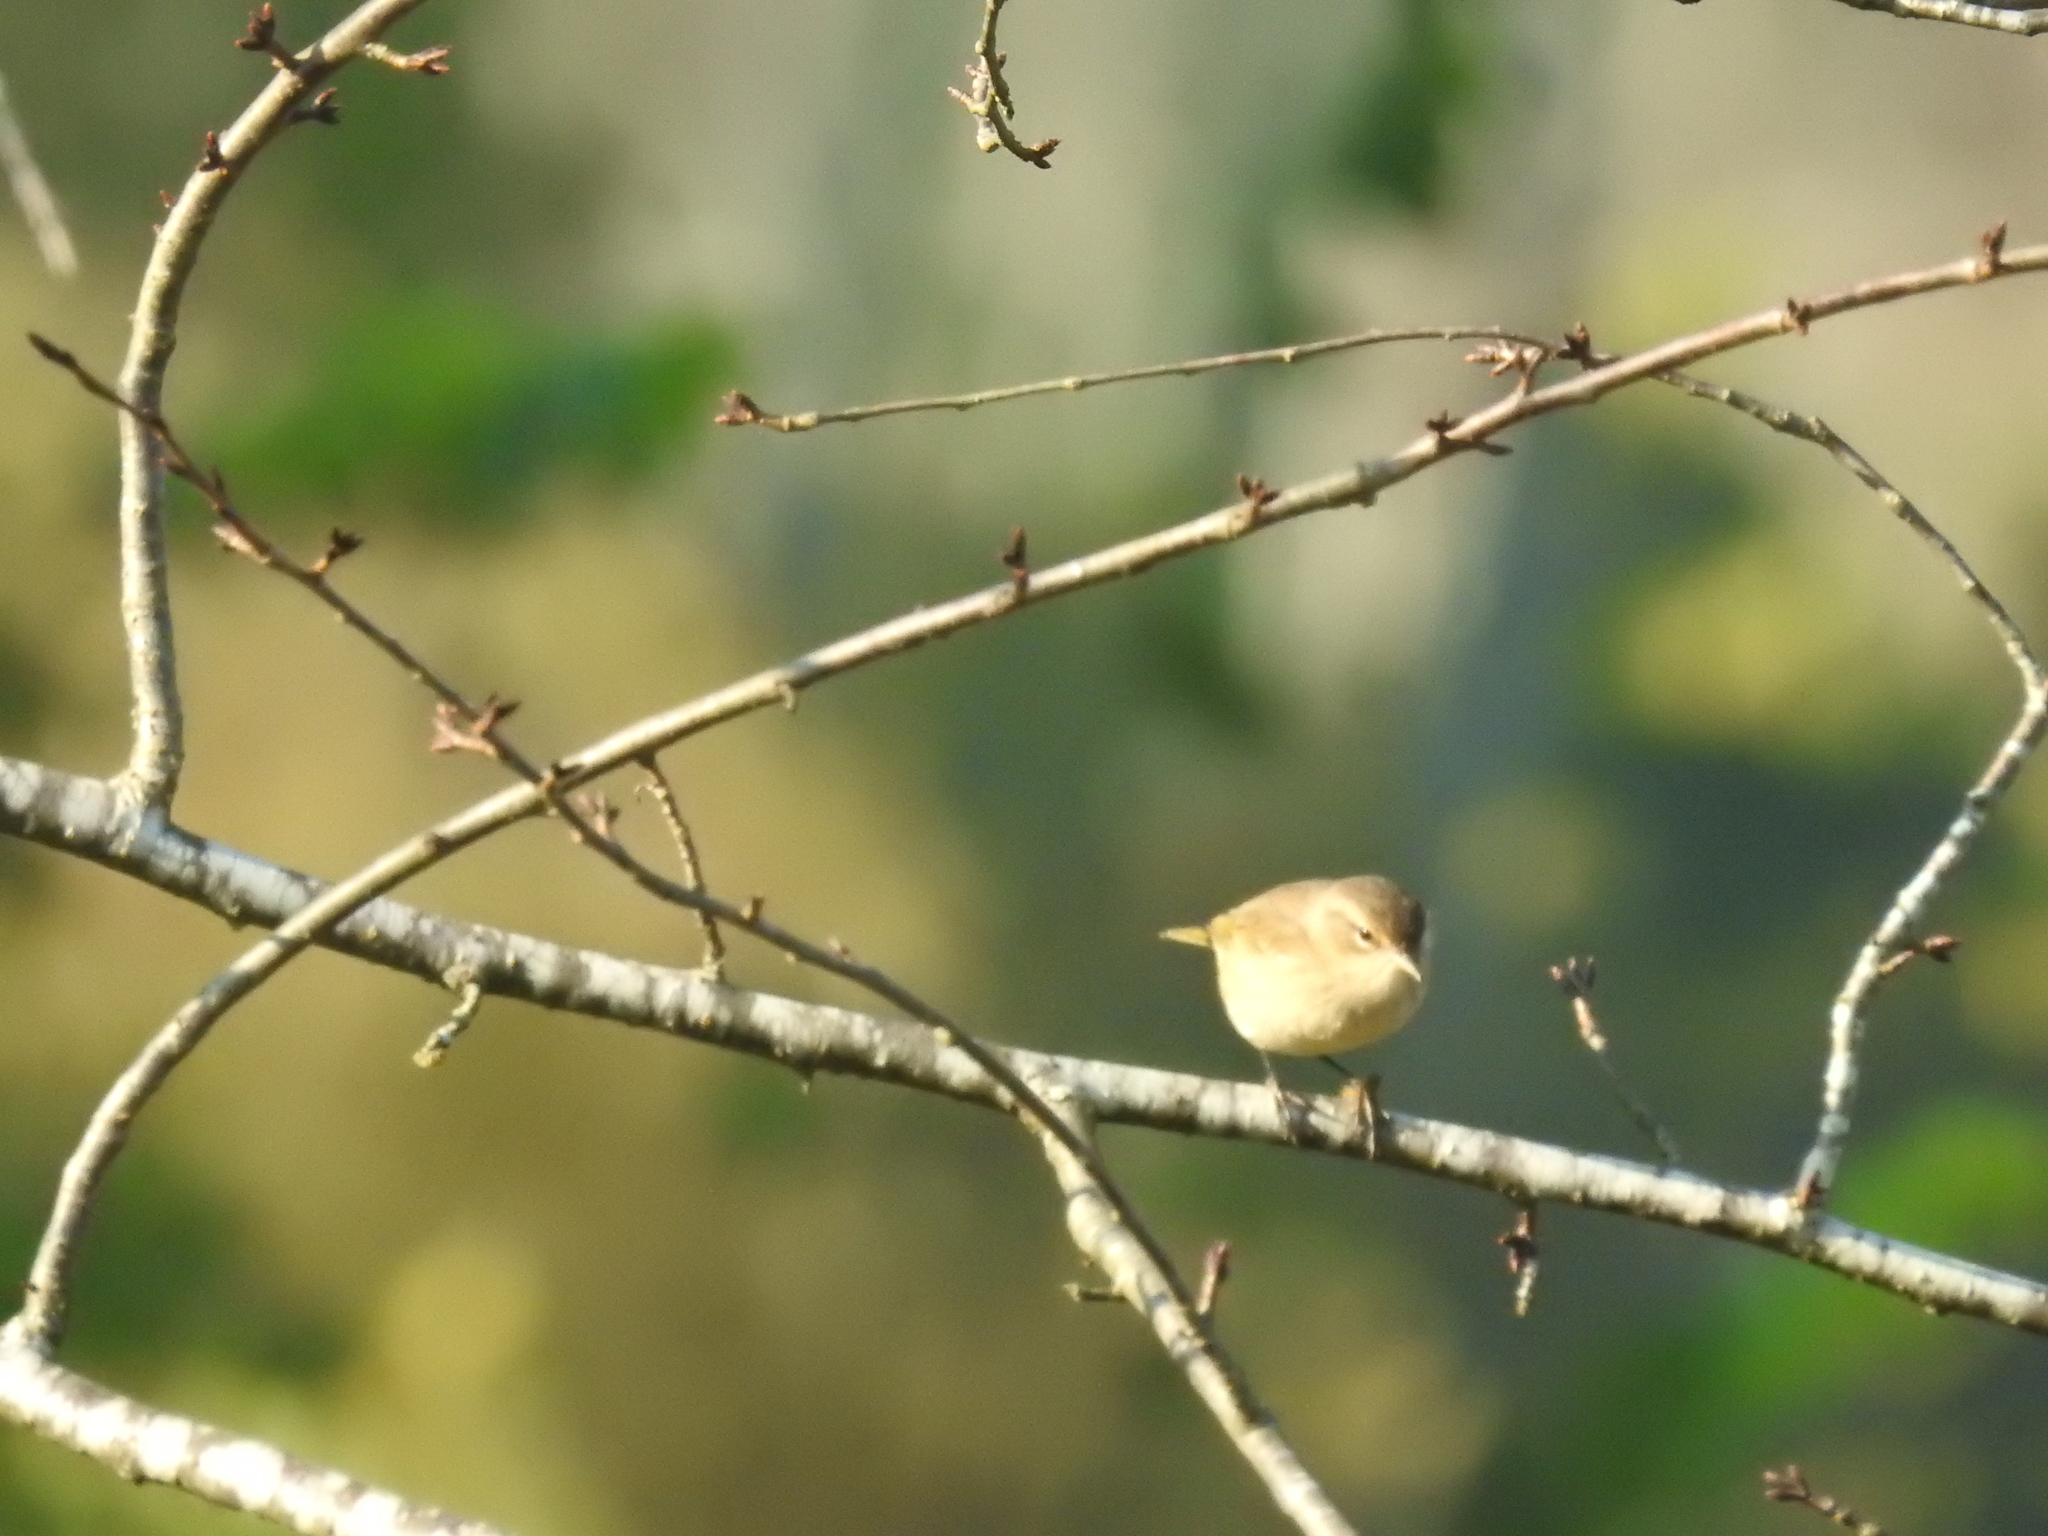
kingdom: Animalia
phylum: Chordata
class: Aves
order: Passeriformes
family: Parulidae
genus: Setophaga
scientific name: Setophaga palmarum
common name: Palm warbler
